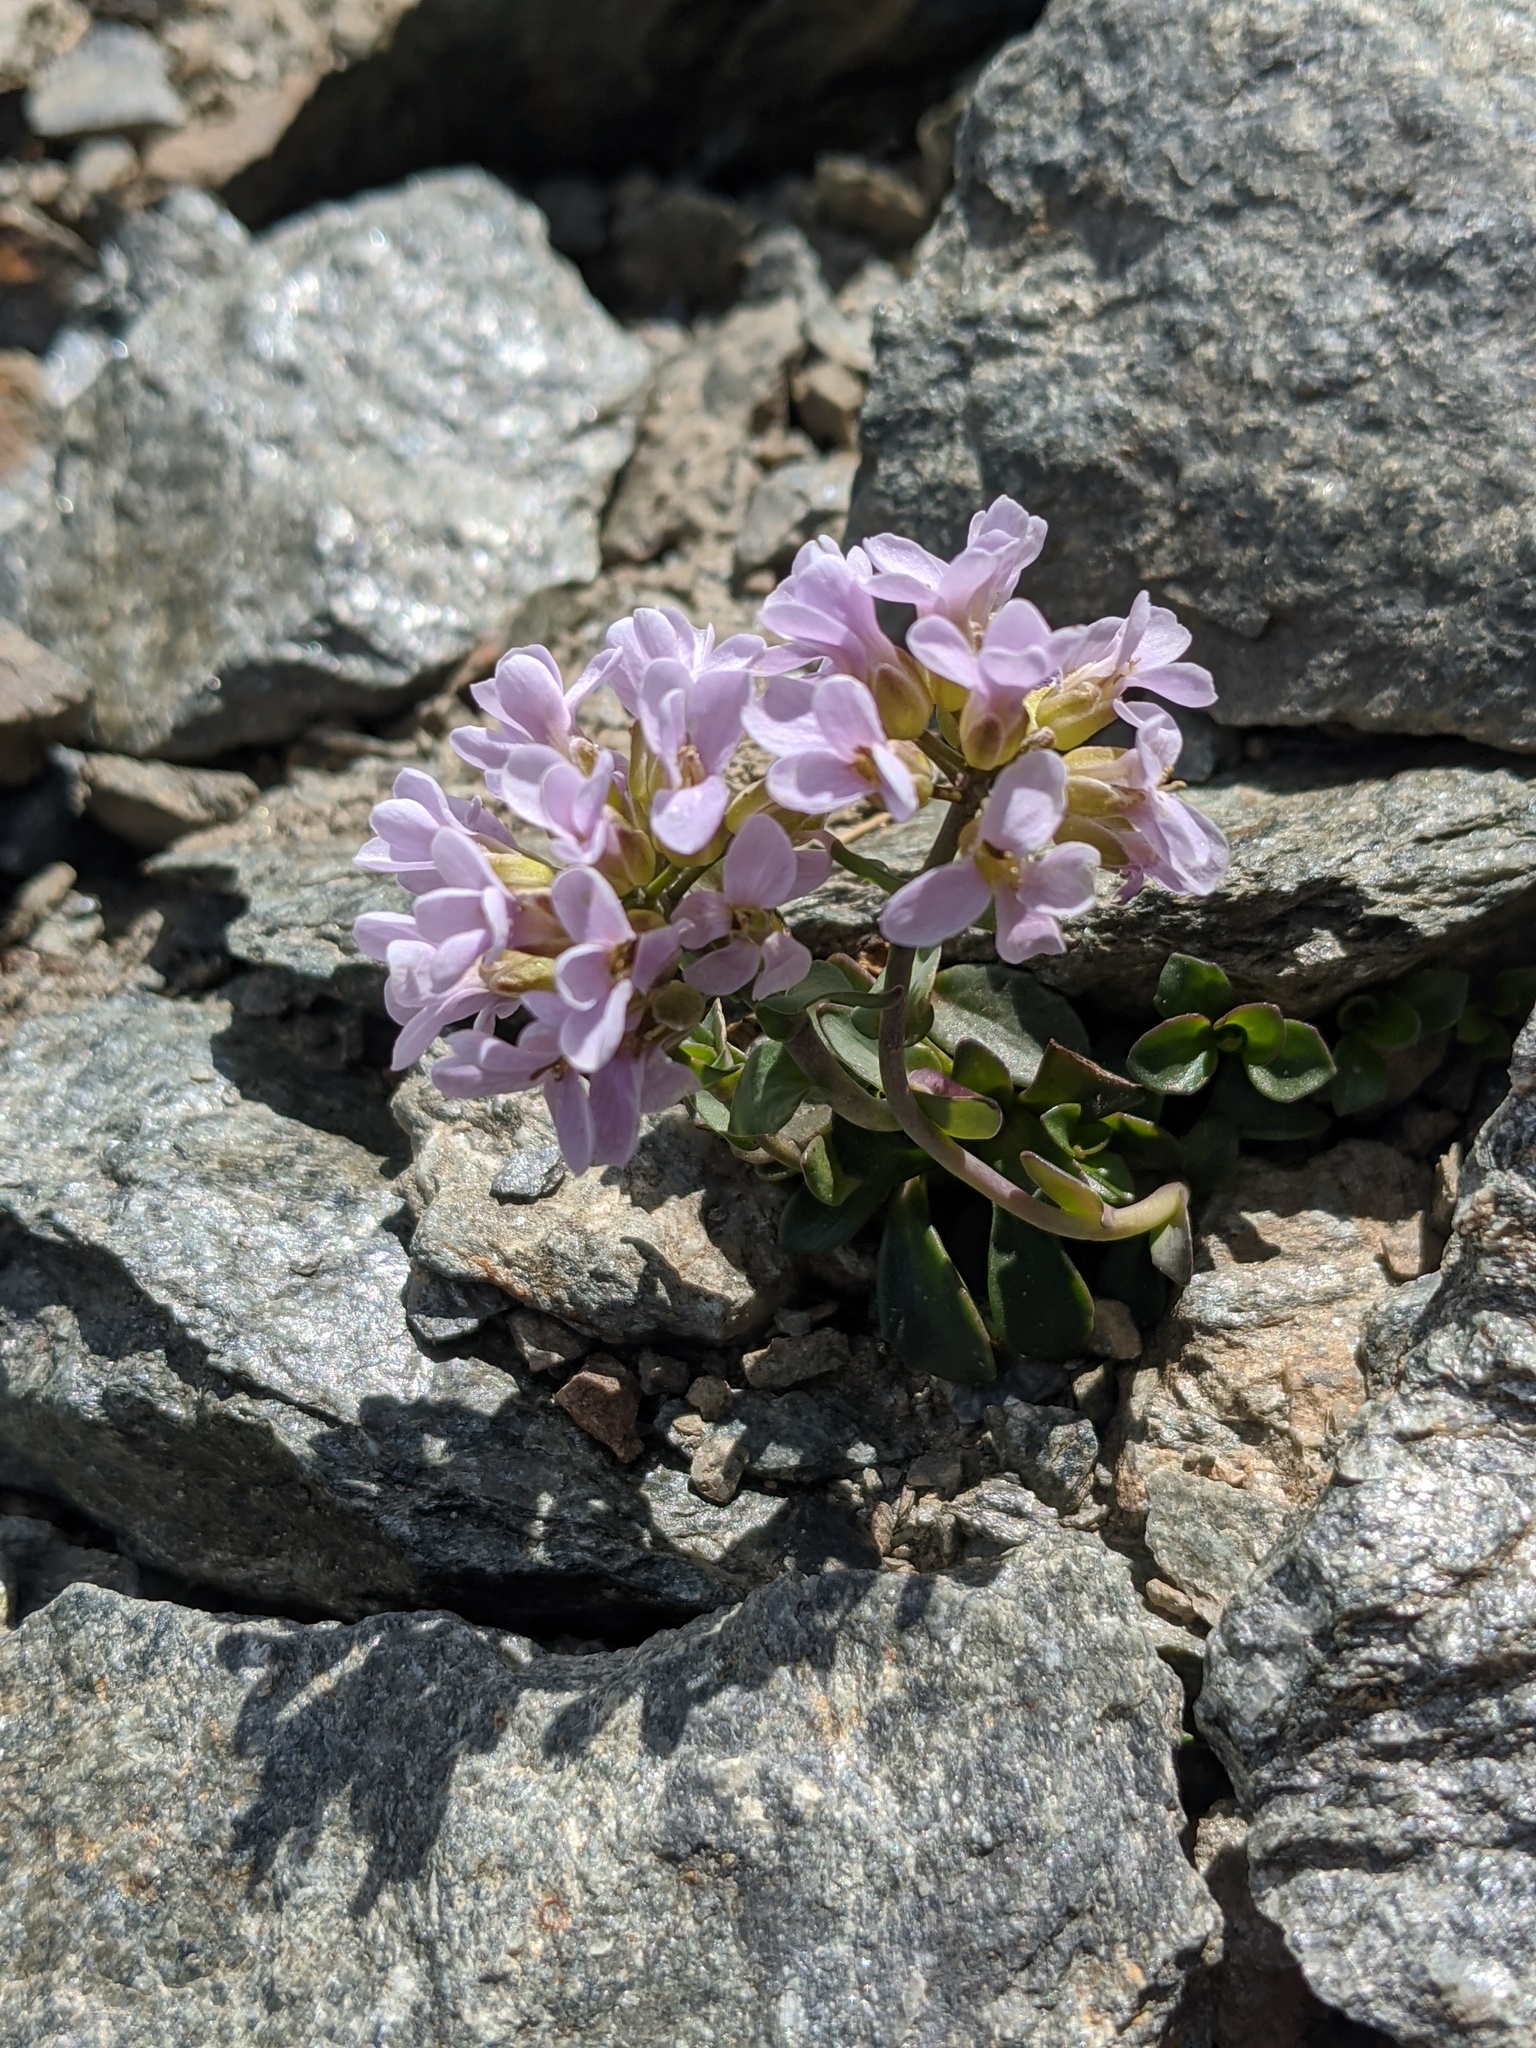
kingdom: Plantae
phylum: Tracheophyta
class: Magnoliopsida
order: Brassicales
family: Brassicaceae
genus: Noccaea
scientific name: Noccaea rotundifolia
